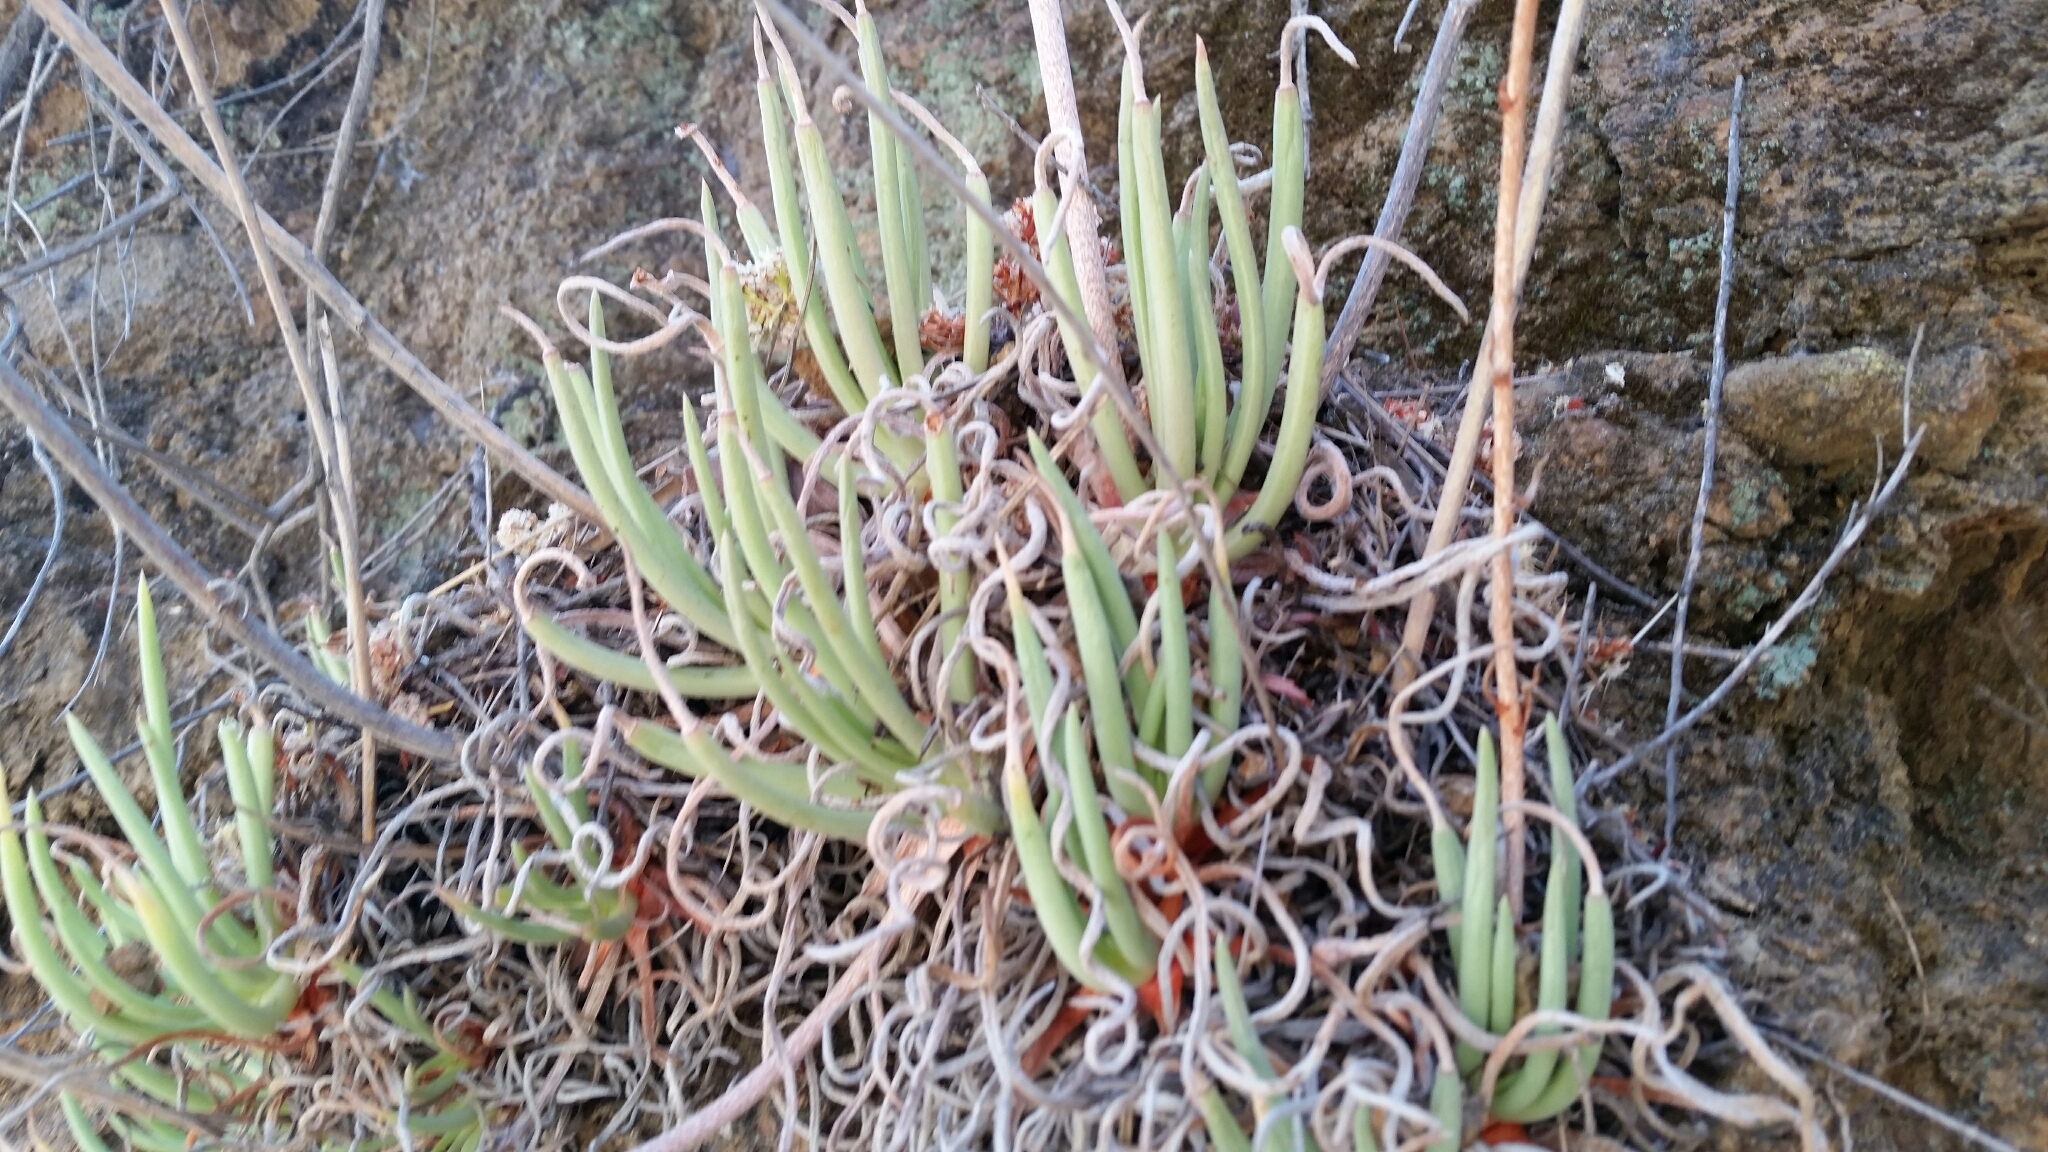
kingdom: Plantae
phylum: Tracheophyta
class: Magnoliopsida
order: Saxifragales
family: Crassulaceae
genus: Dudleya
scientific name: Dudleya edulis
